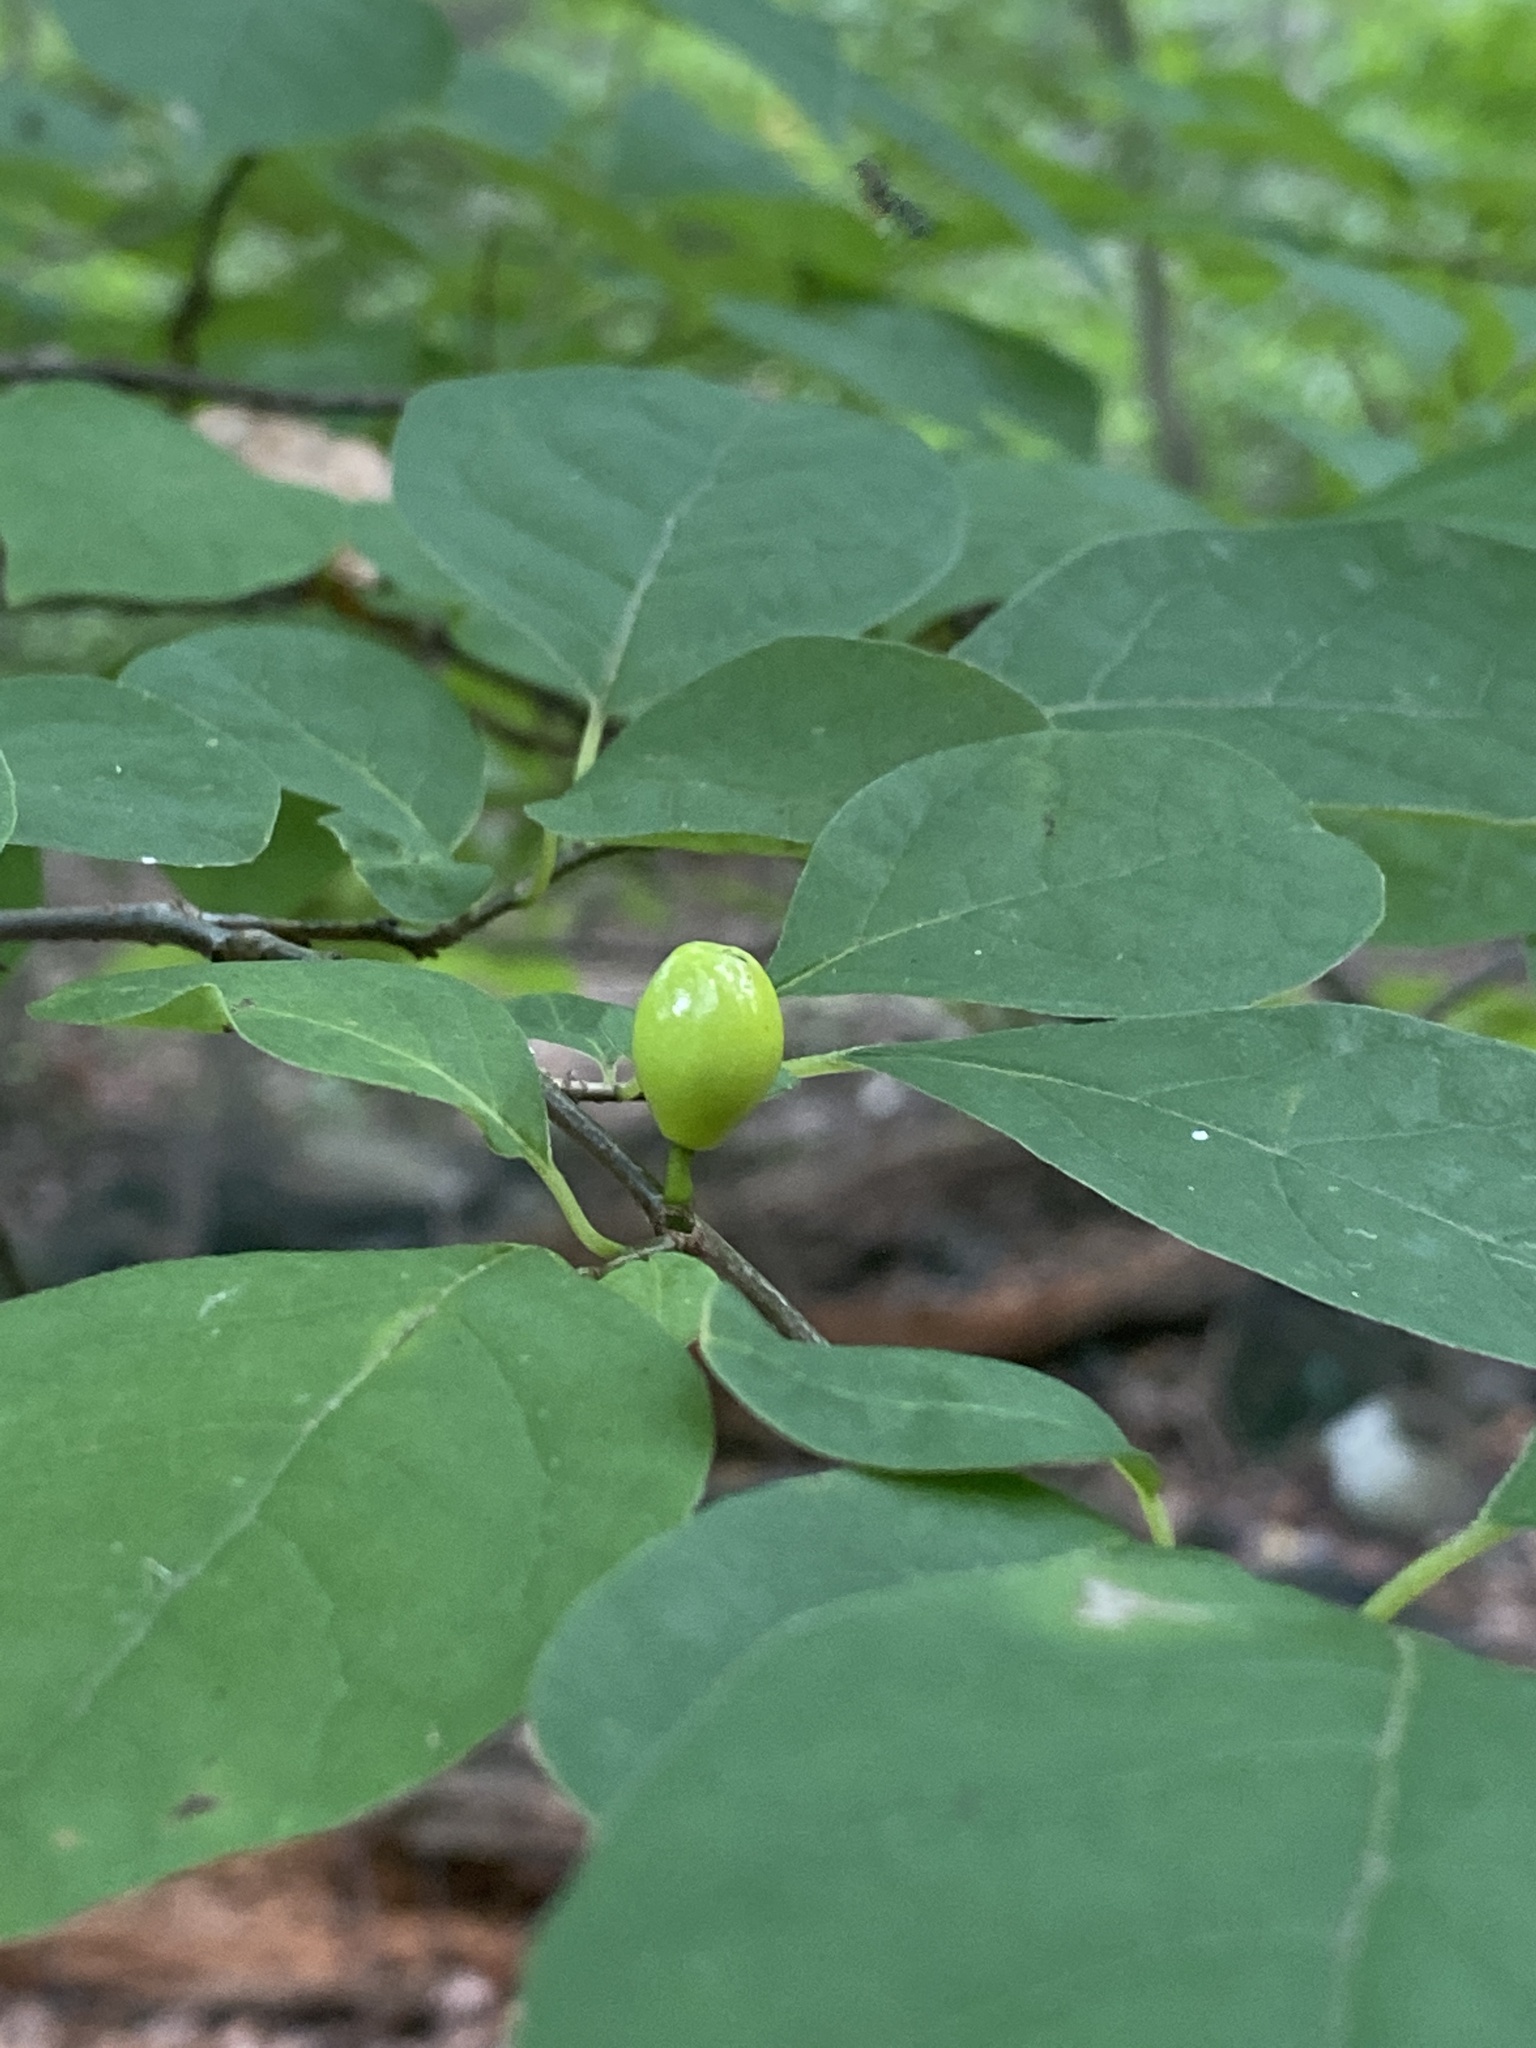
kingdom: Plantae
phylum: Tracheophyta
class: Magnoliopsida
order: Laurales
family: Lauraceae
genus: Lindera
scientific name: Lindera benzoin
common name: Spicebush
